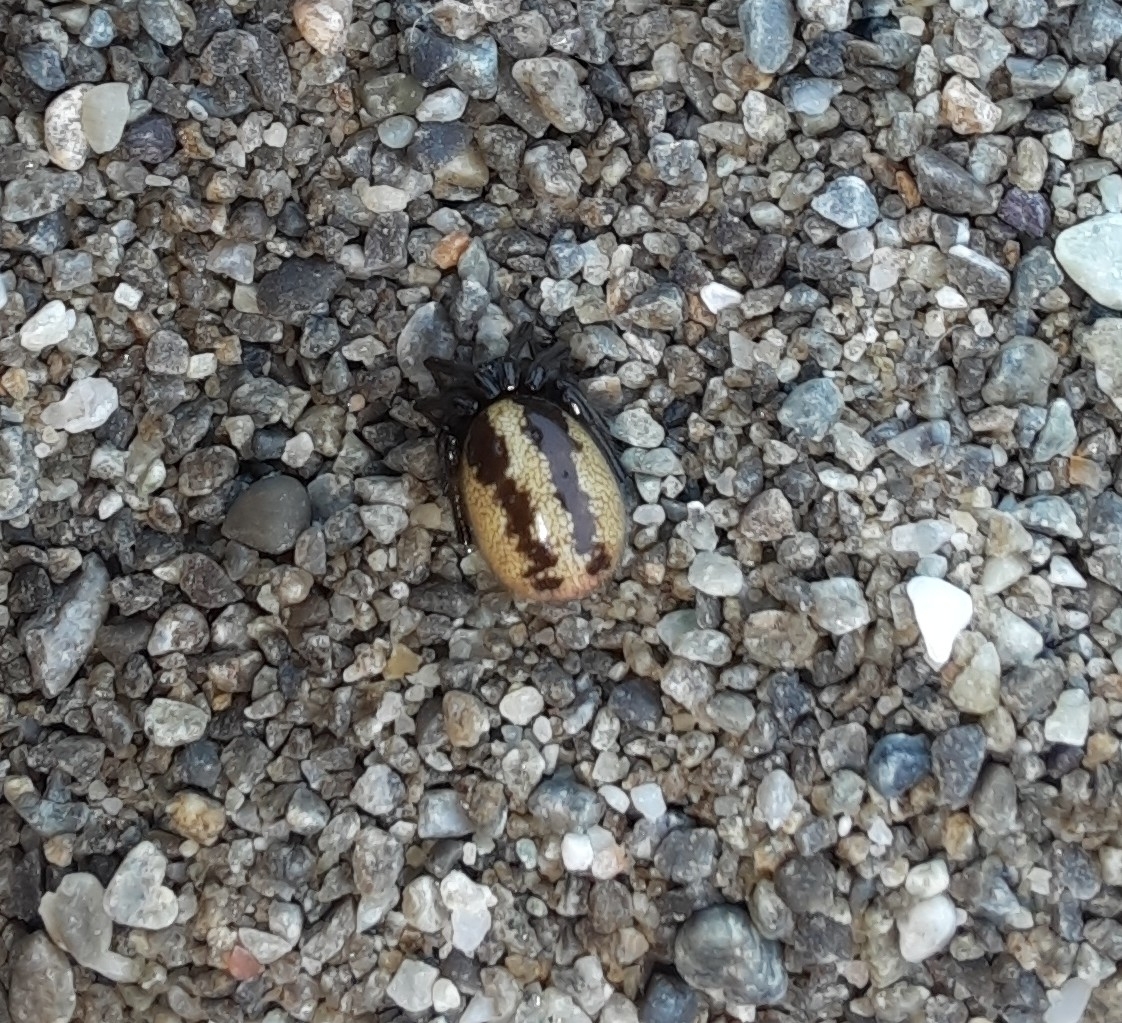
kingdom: Animalia
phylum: Arthropoda
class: Arachnida
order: Araneae
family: Theridiidae
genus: Steatoda
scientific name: Steatoda lepida
